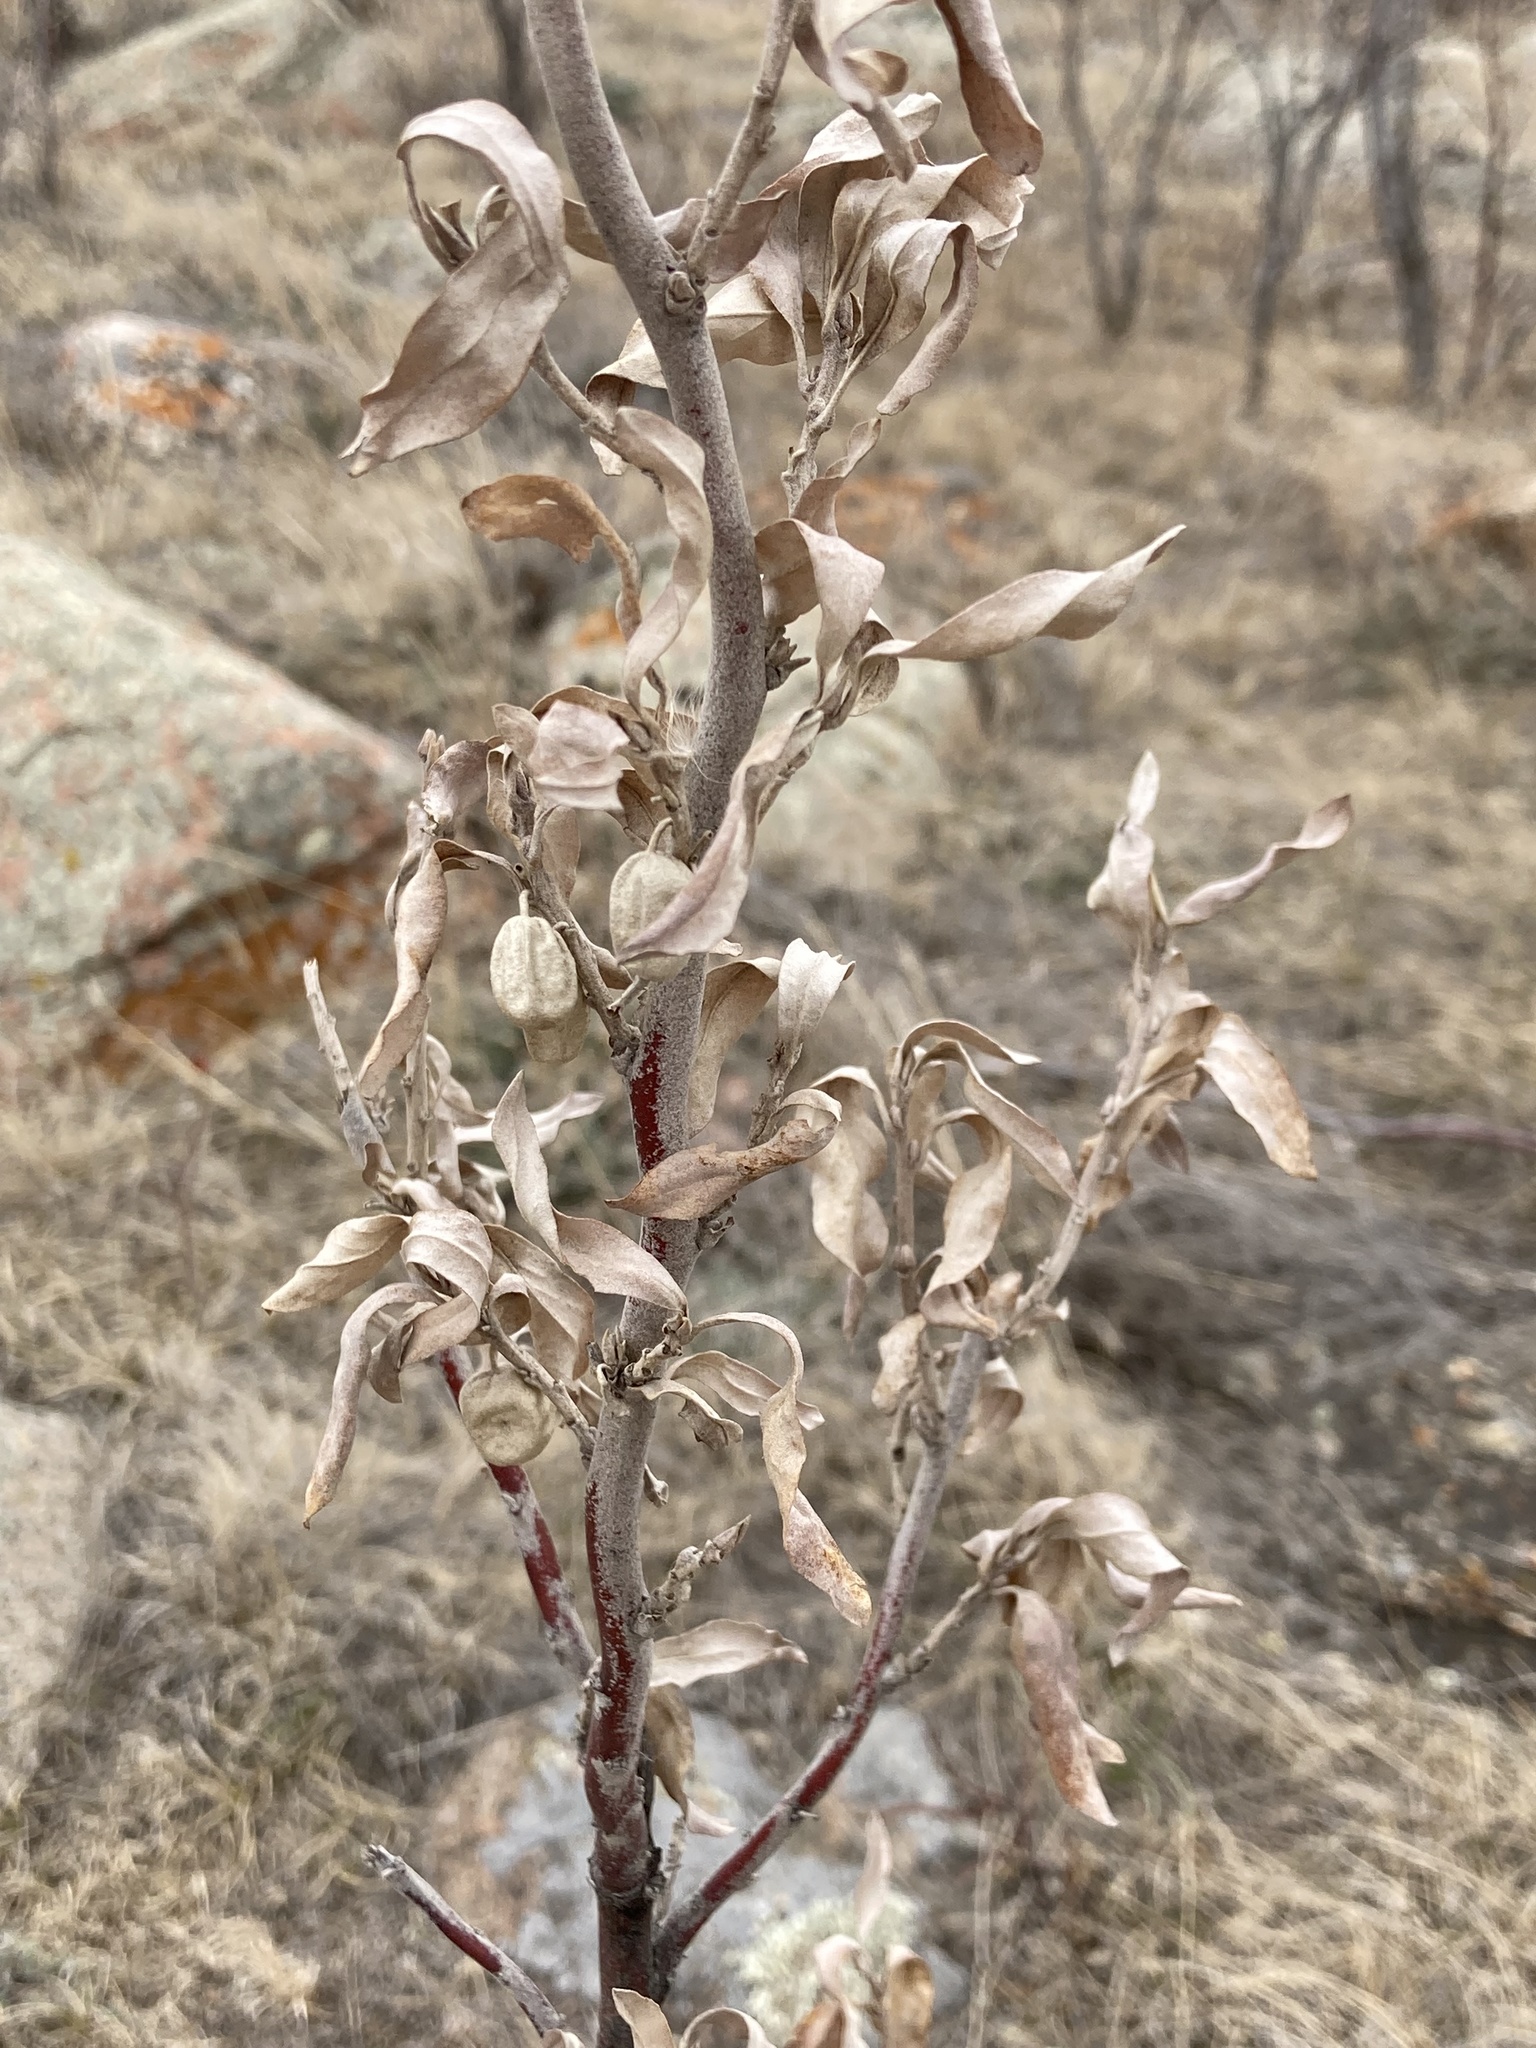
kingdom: Plantae
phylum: Tracheophyta
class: Magnoliopsida
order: Rosales
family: Elaeagnaceae
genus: Elaeagnus
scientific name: Elaeagnus commutata
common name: Silverberry
